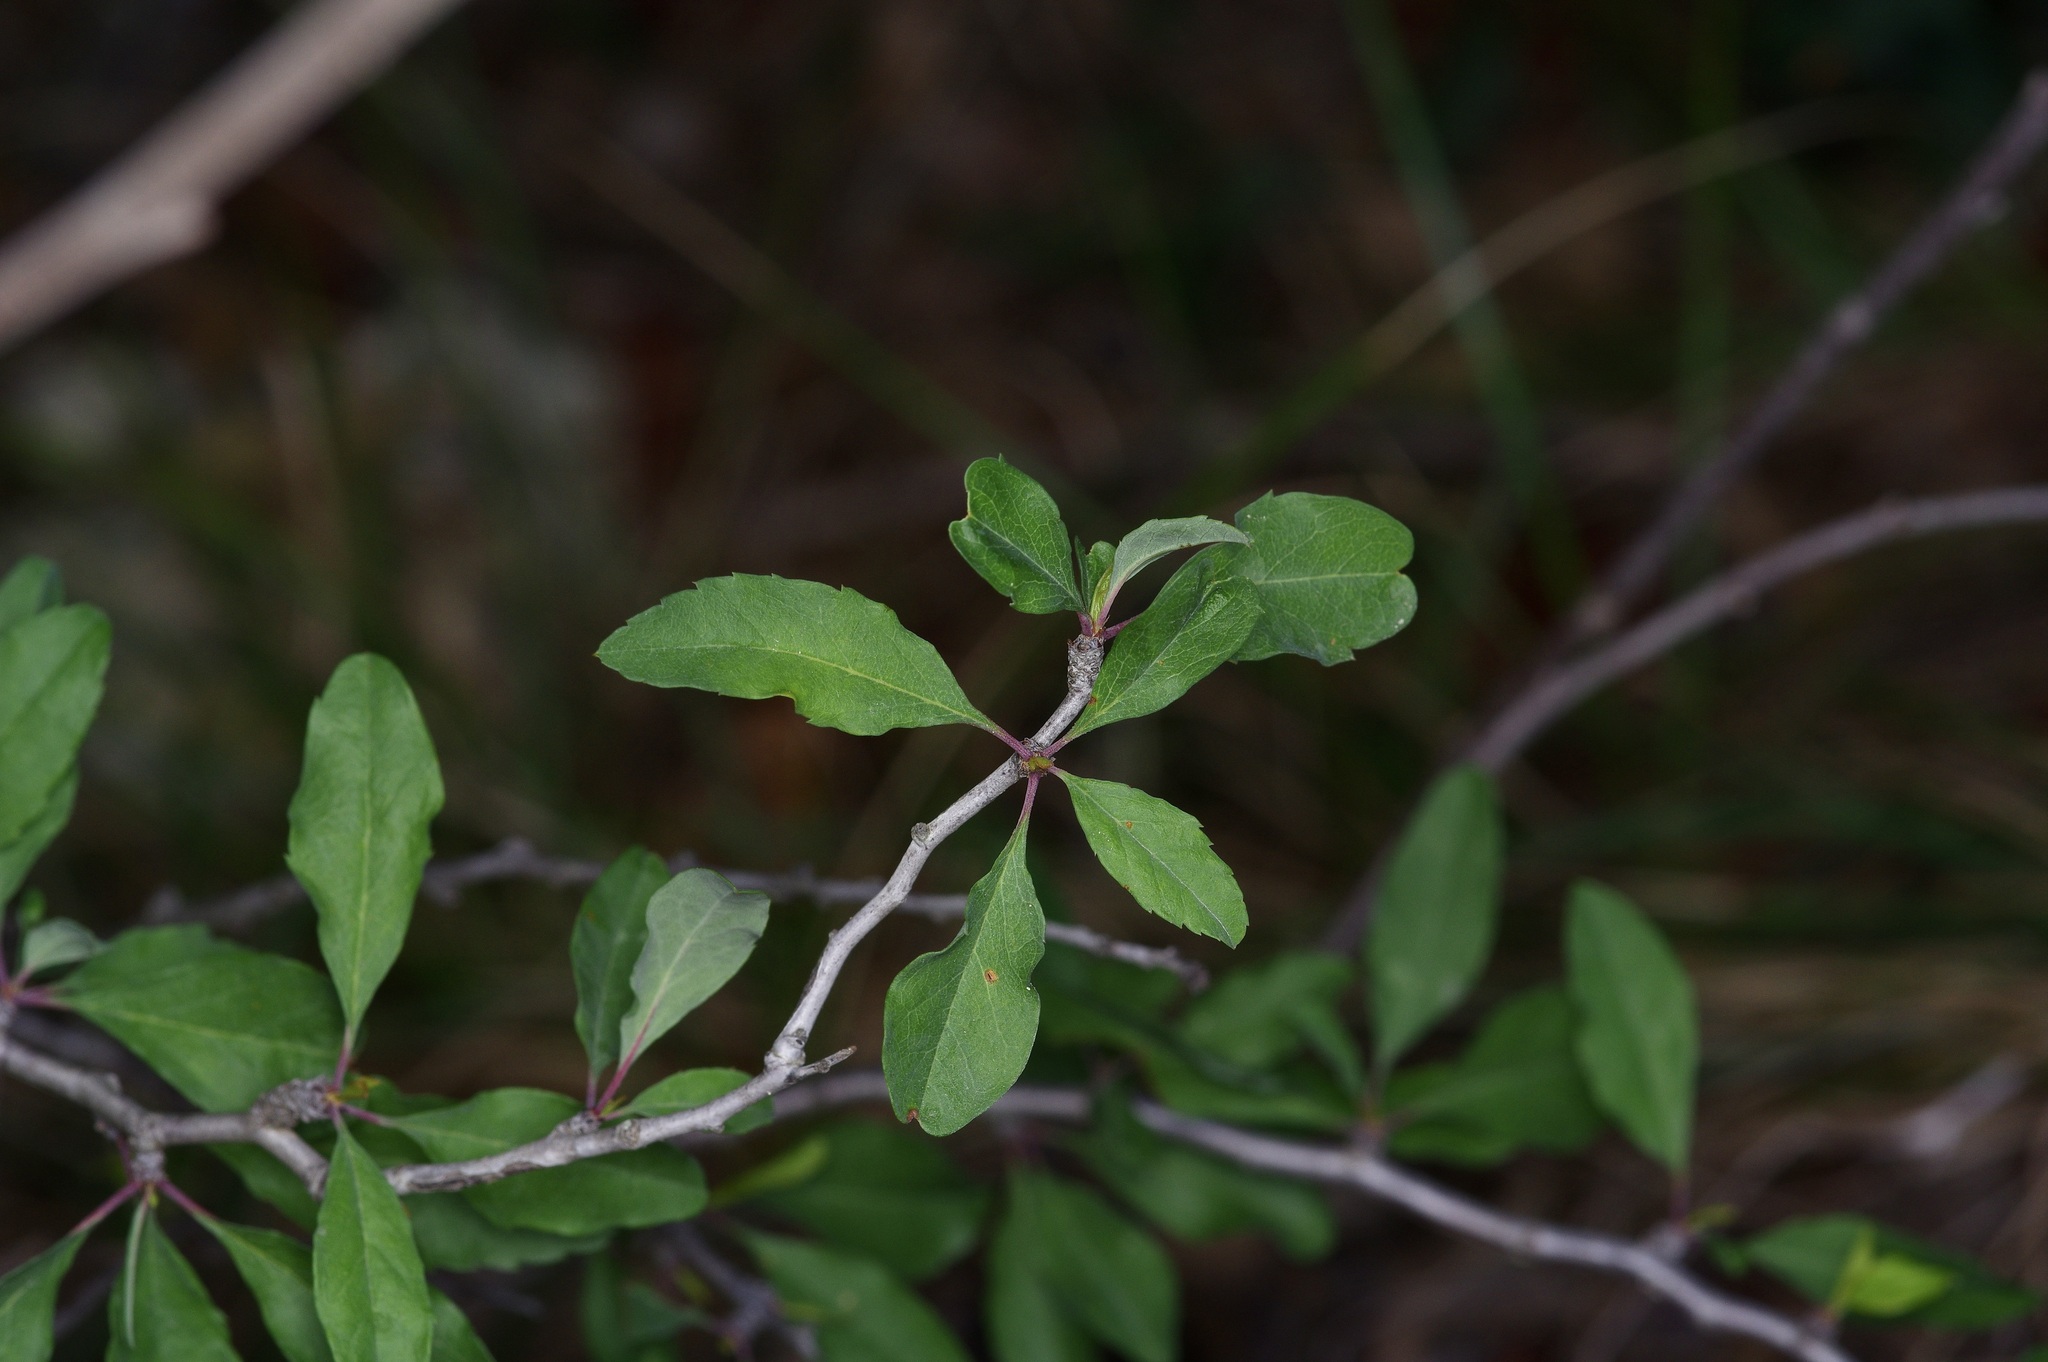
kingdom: Plantae
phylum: Tracheophyta
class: Magnoliopsida
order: Rosales
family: Rosaceae
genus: Prunus
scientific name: Prunus minutiflora
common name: Texas almond
